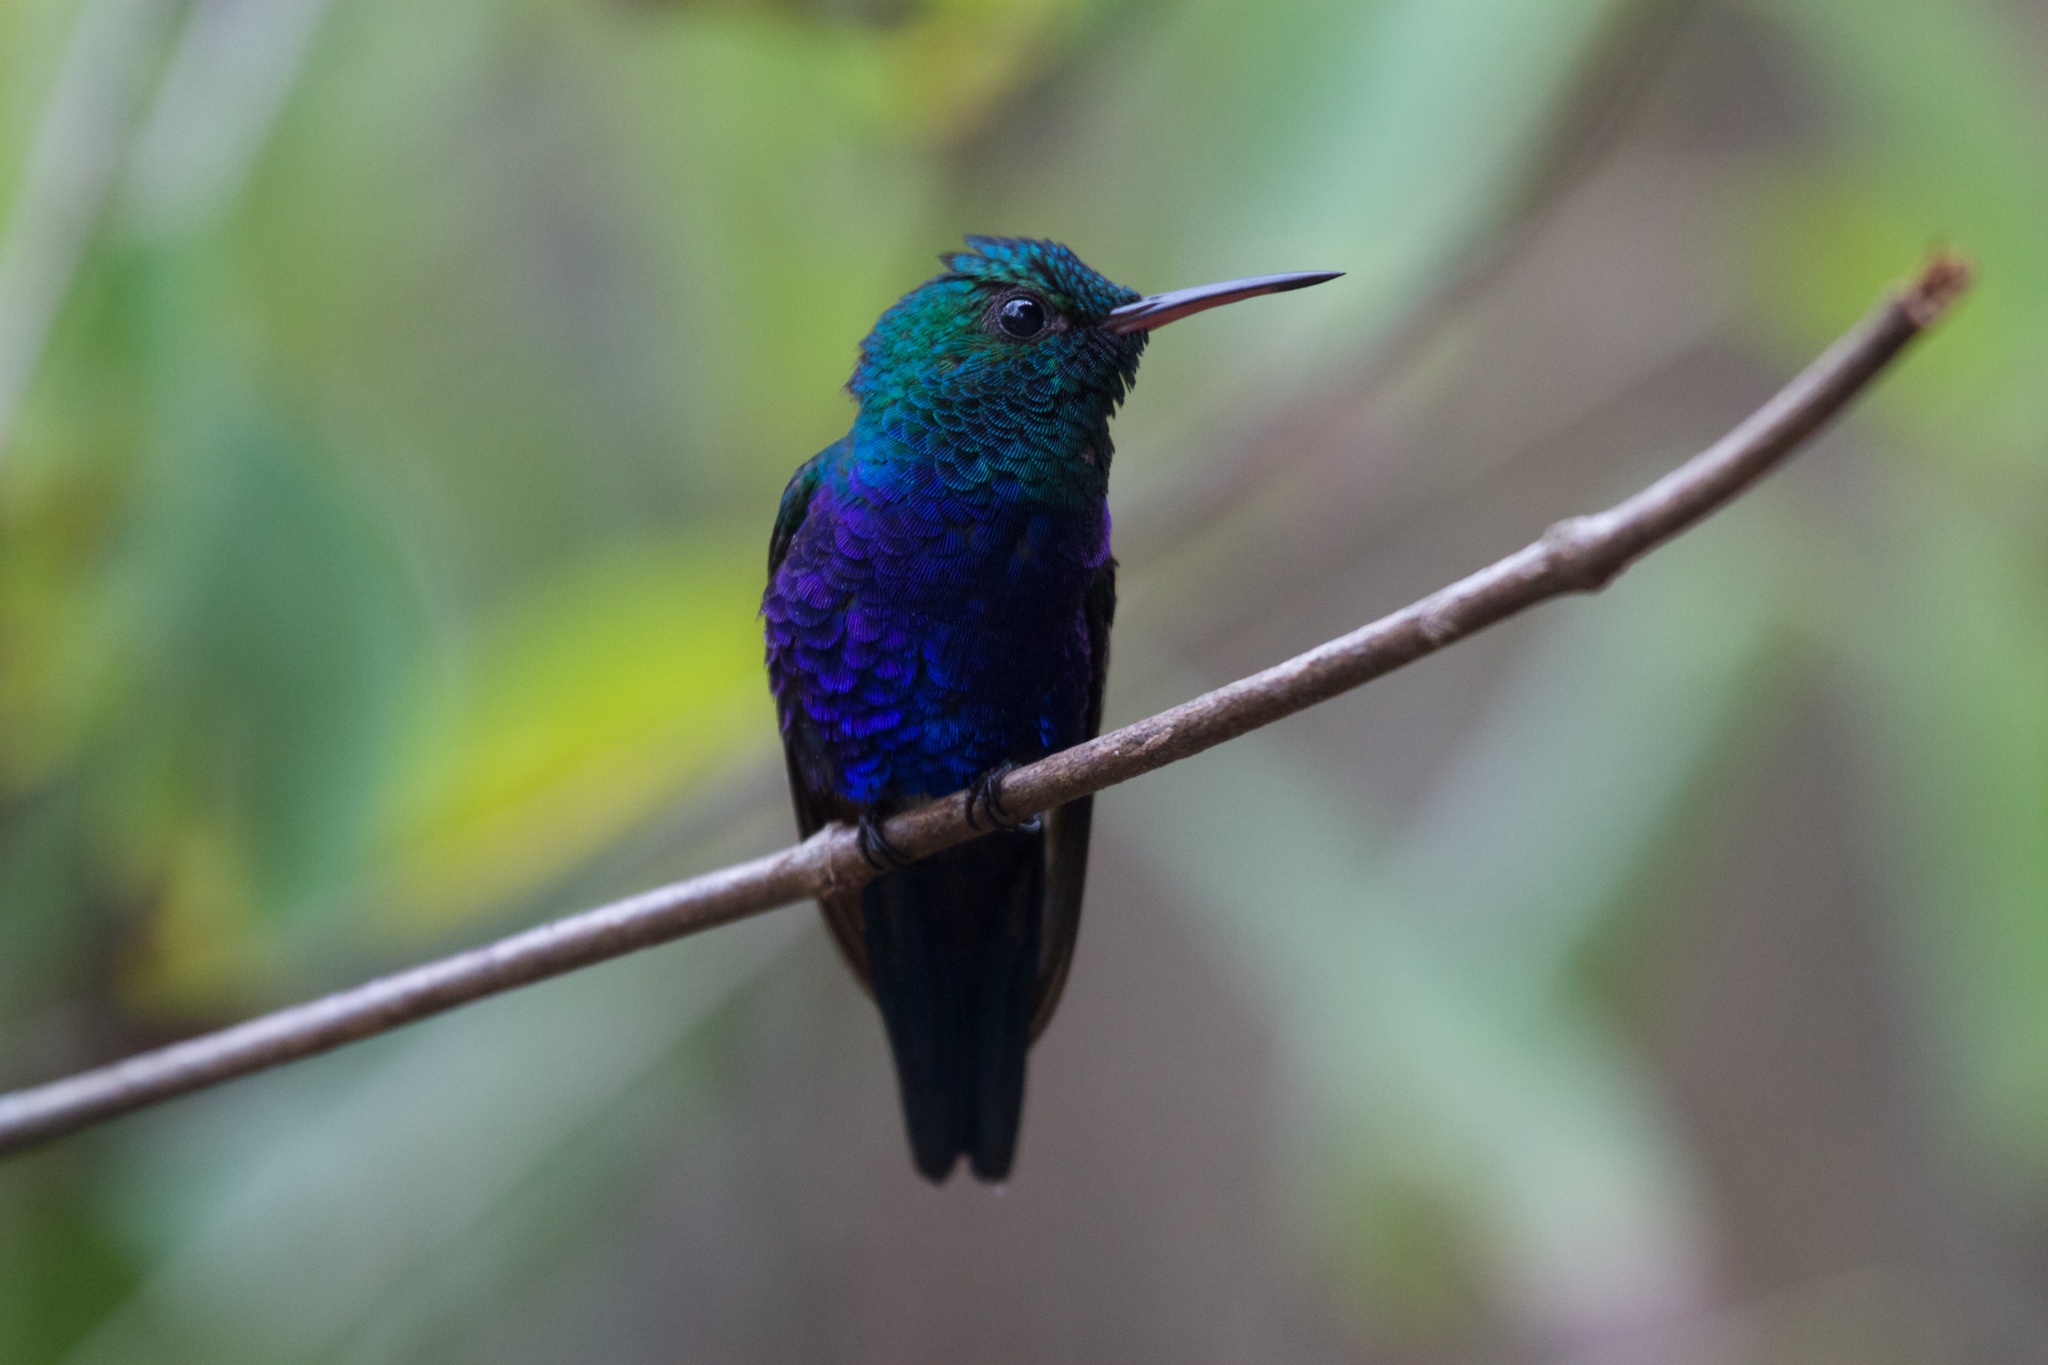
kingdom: Animalia
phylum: Chordata
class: Aves
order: Apodiformes
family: Trochilidae
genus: Chlorestes
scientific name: Chlorestes julie
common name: Violet-bellied hummingbird
